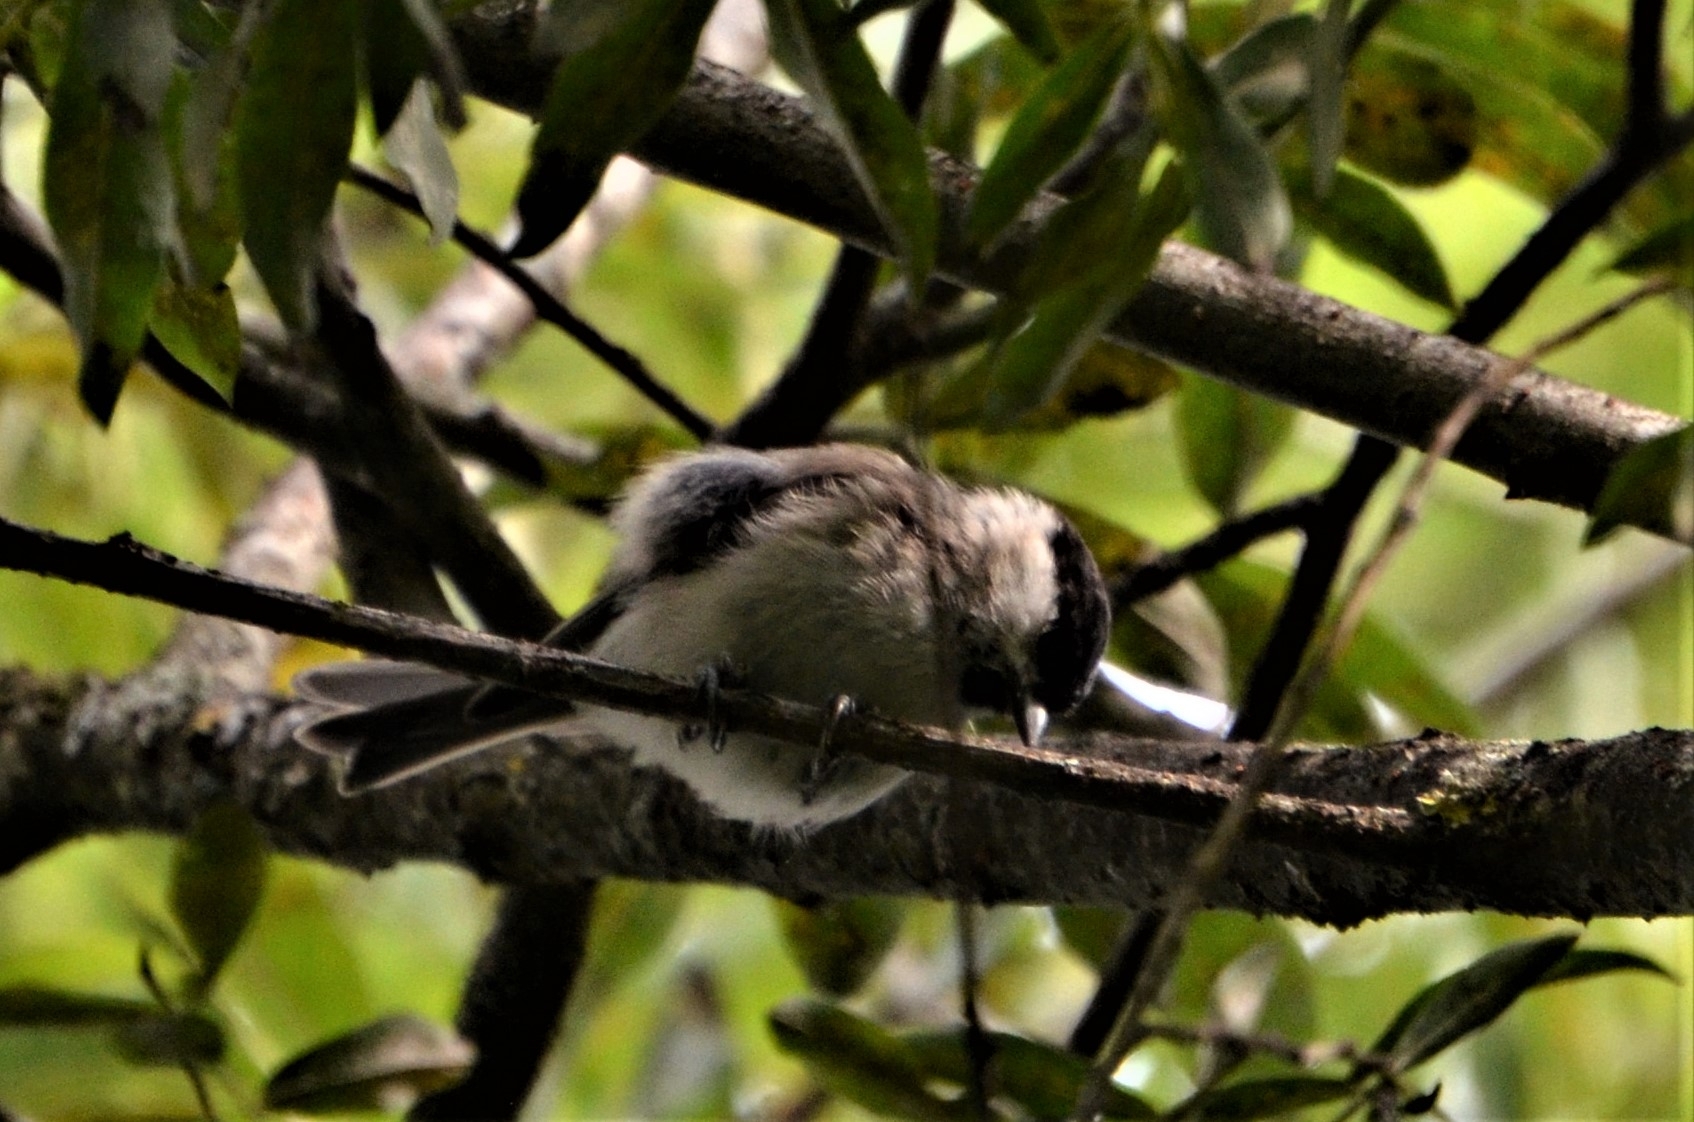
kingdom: Animalia
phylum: Chordata
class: Aves
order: Passeriformes
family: Paridae
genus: Poecile
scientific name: Poecile palustris
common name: Marsh tit
